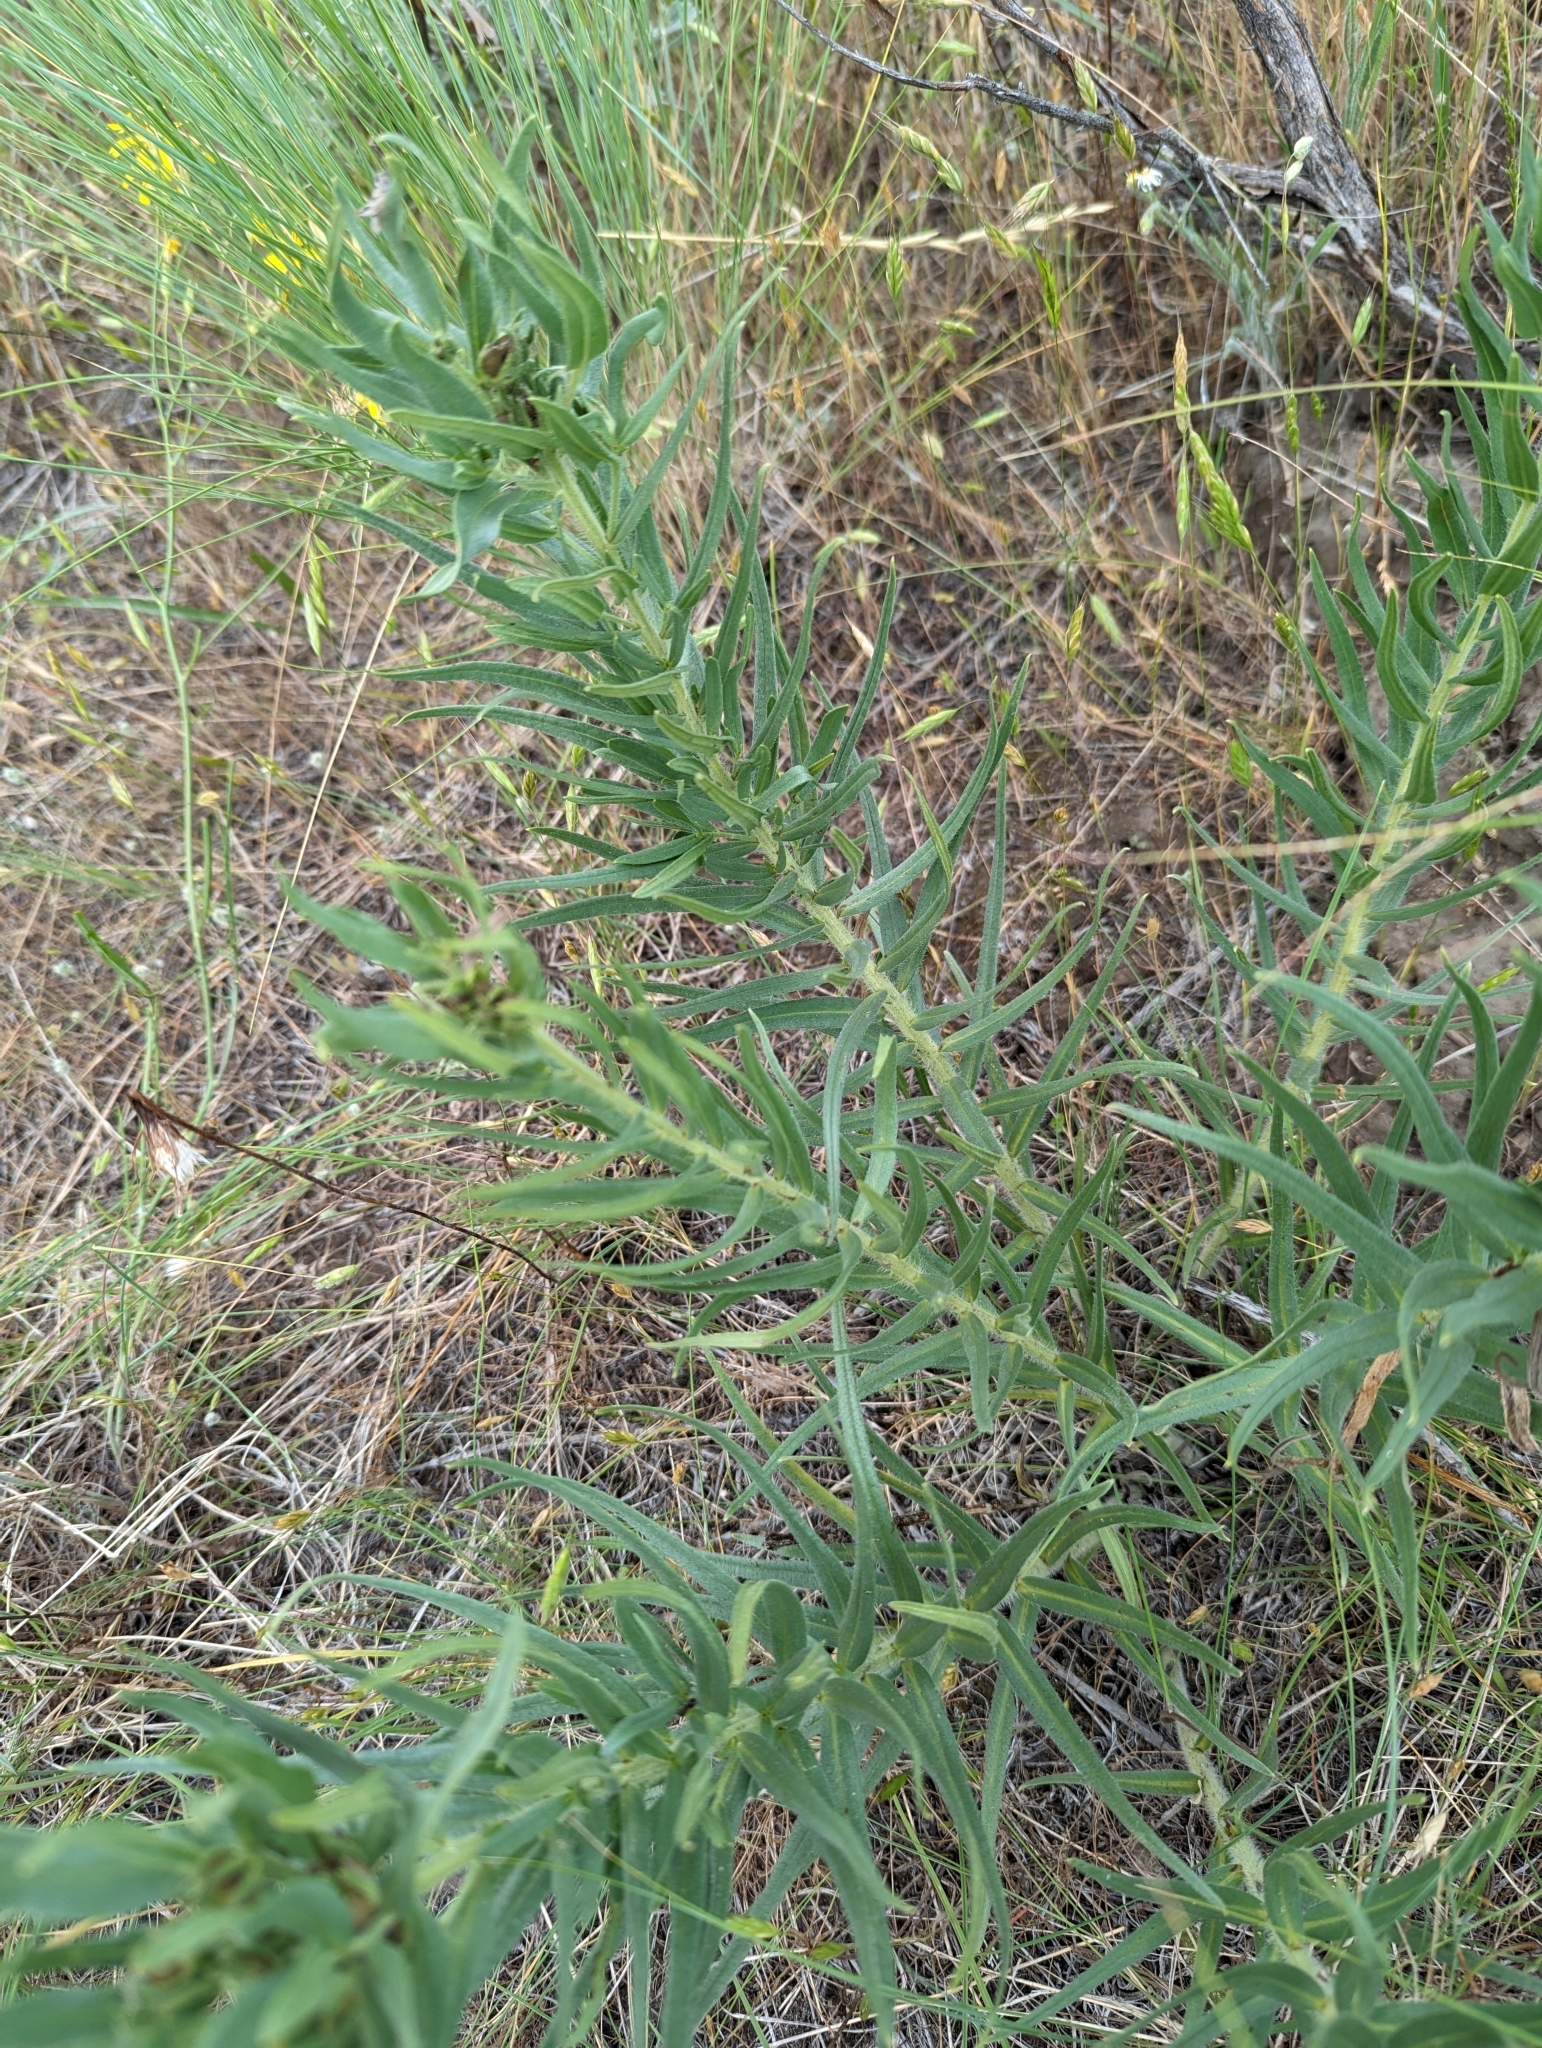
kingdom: Plantae
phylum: Tracheophyta
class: Magnoliopsida
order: Boraginales
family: Boraginaceae
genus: Lithospermum
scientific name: Lithospermum ruderale
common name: Western gromwell
